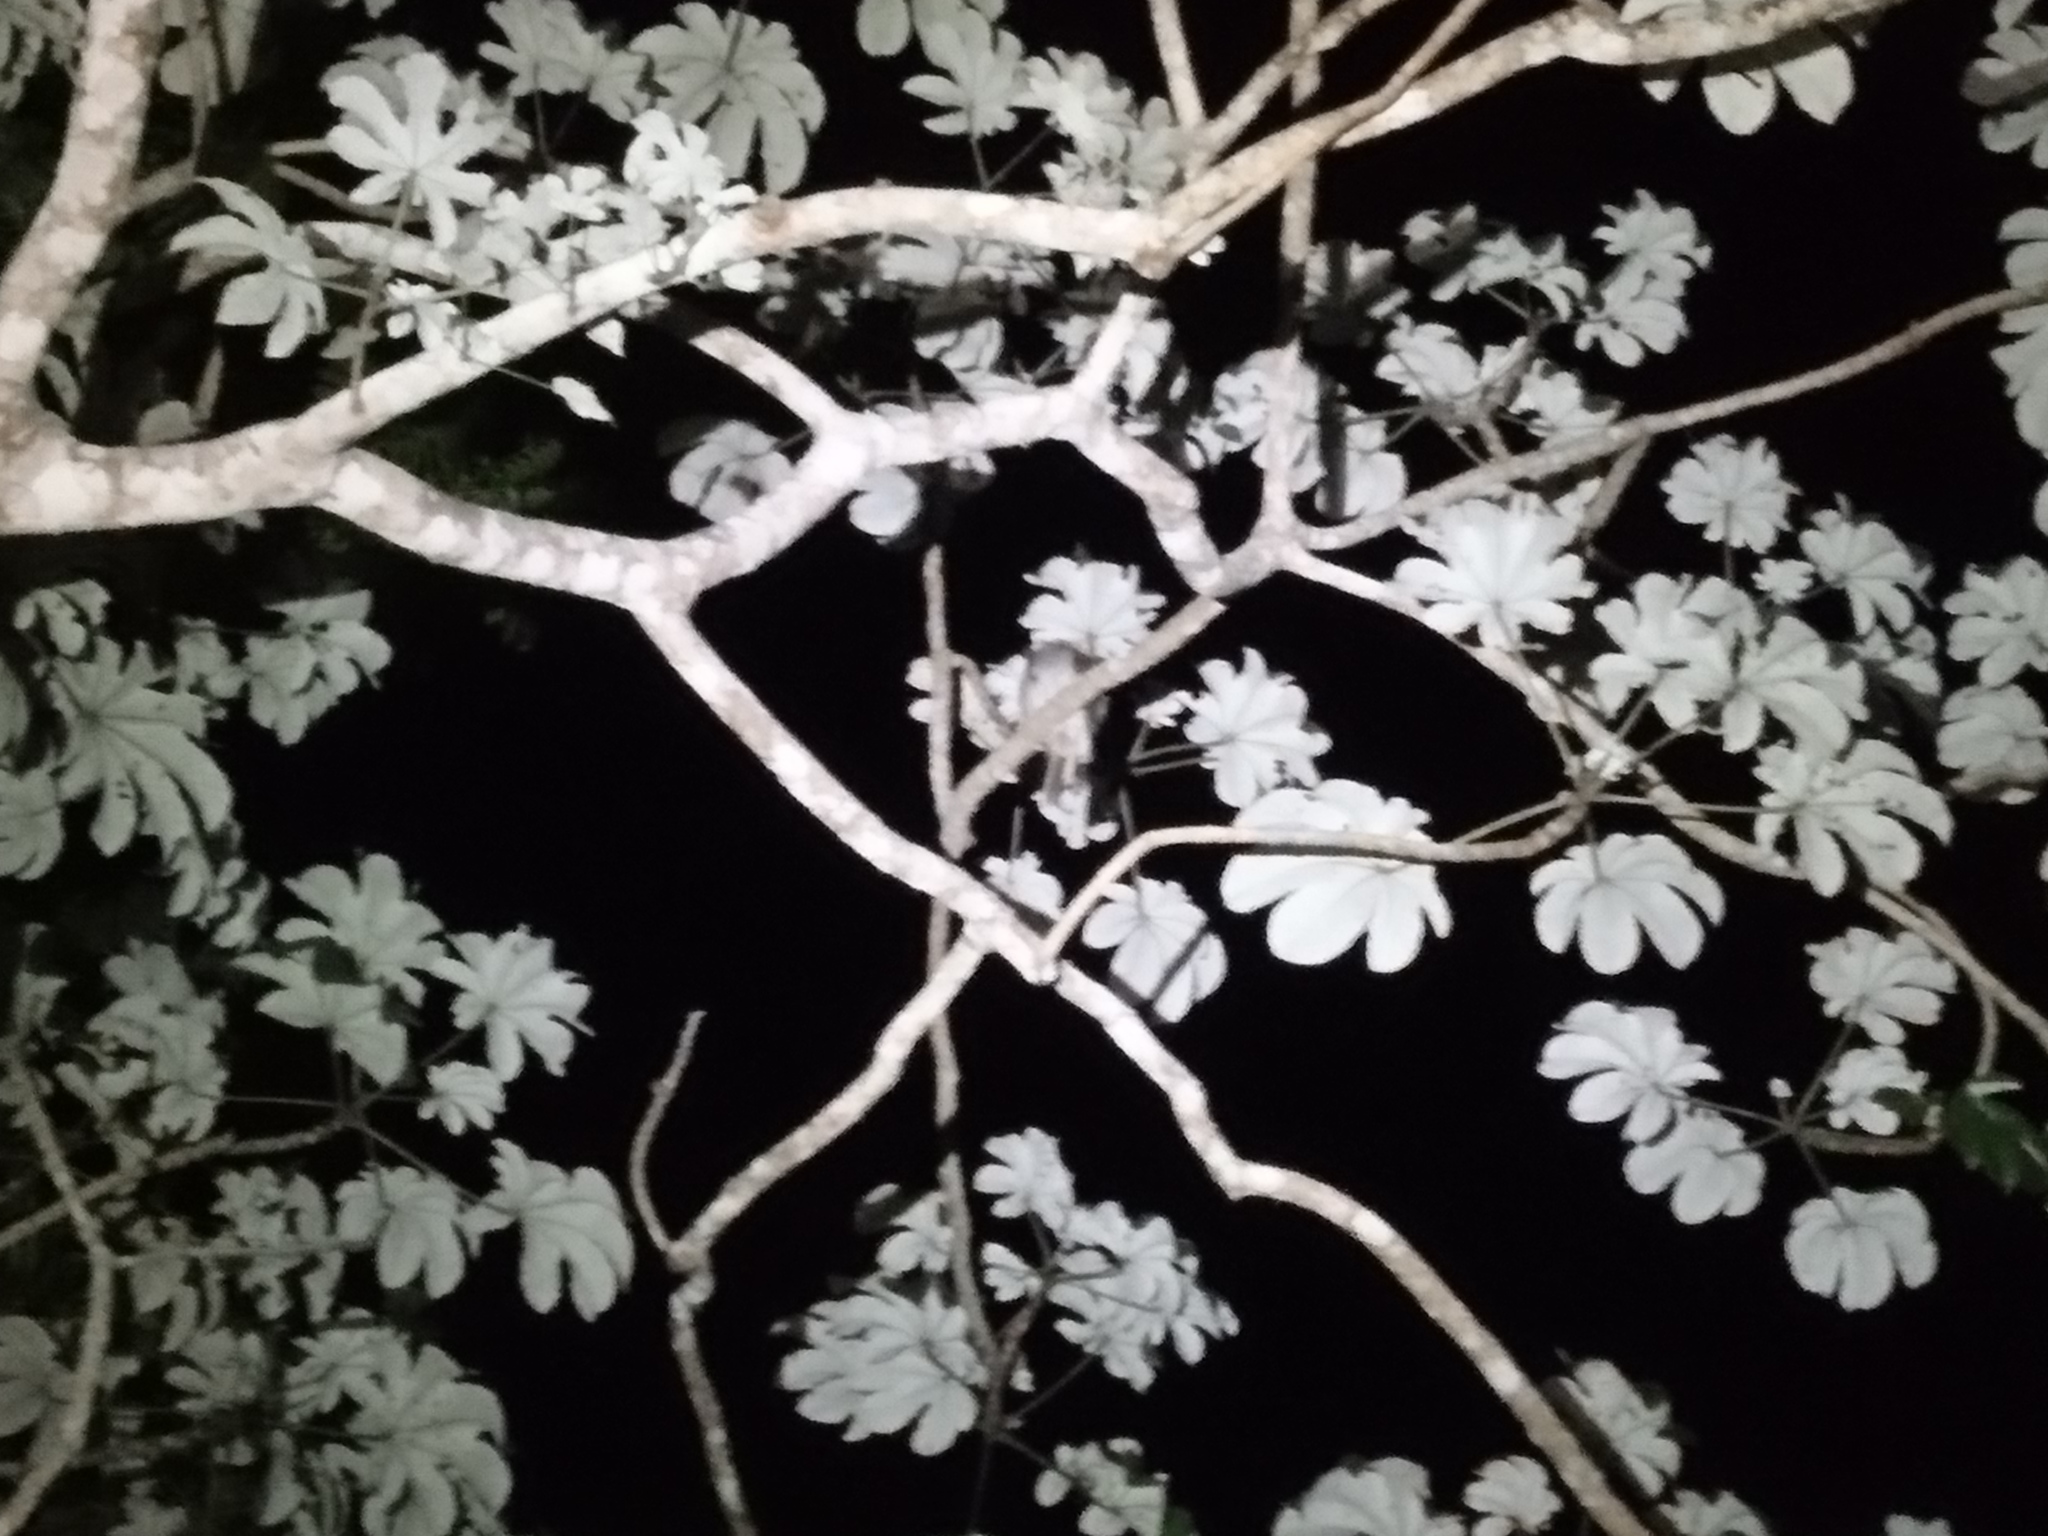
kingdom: Animalia
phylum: Chordata
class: Aves
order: Nyctibiiformes
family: Nyctibiidae
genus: Nyctibius
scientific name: Nyctibius jamaicensis
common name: Northern potoo
